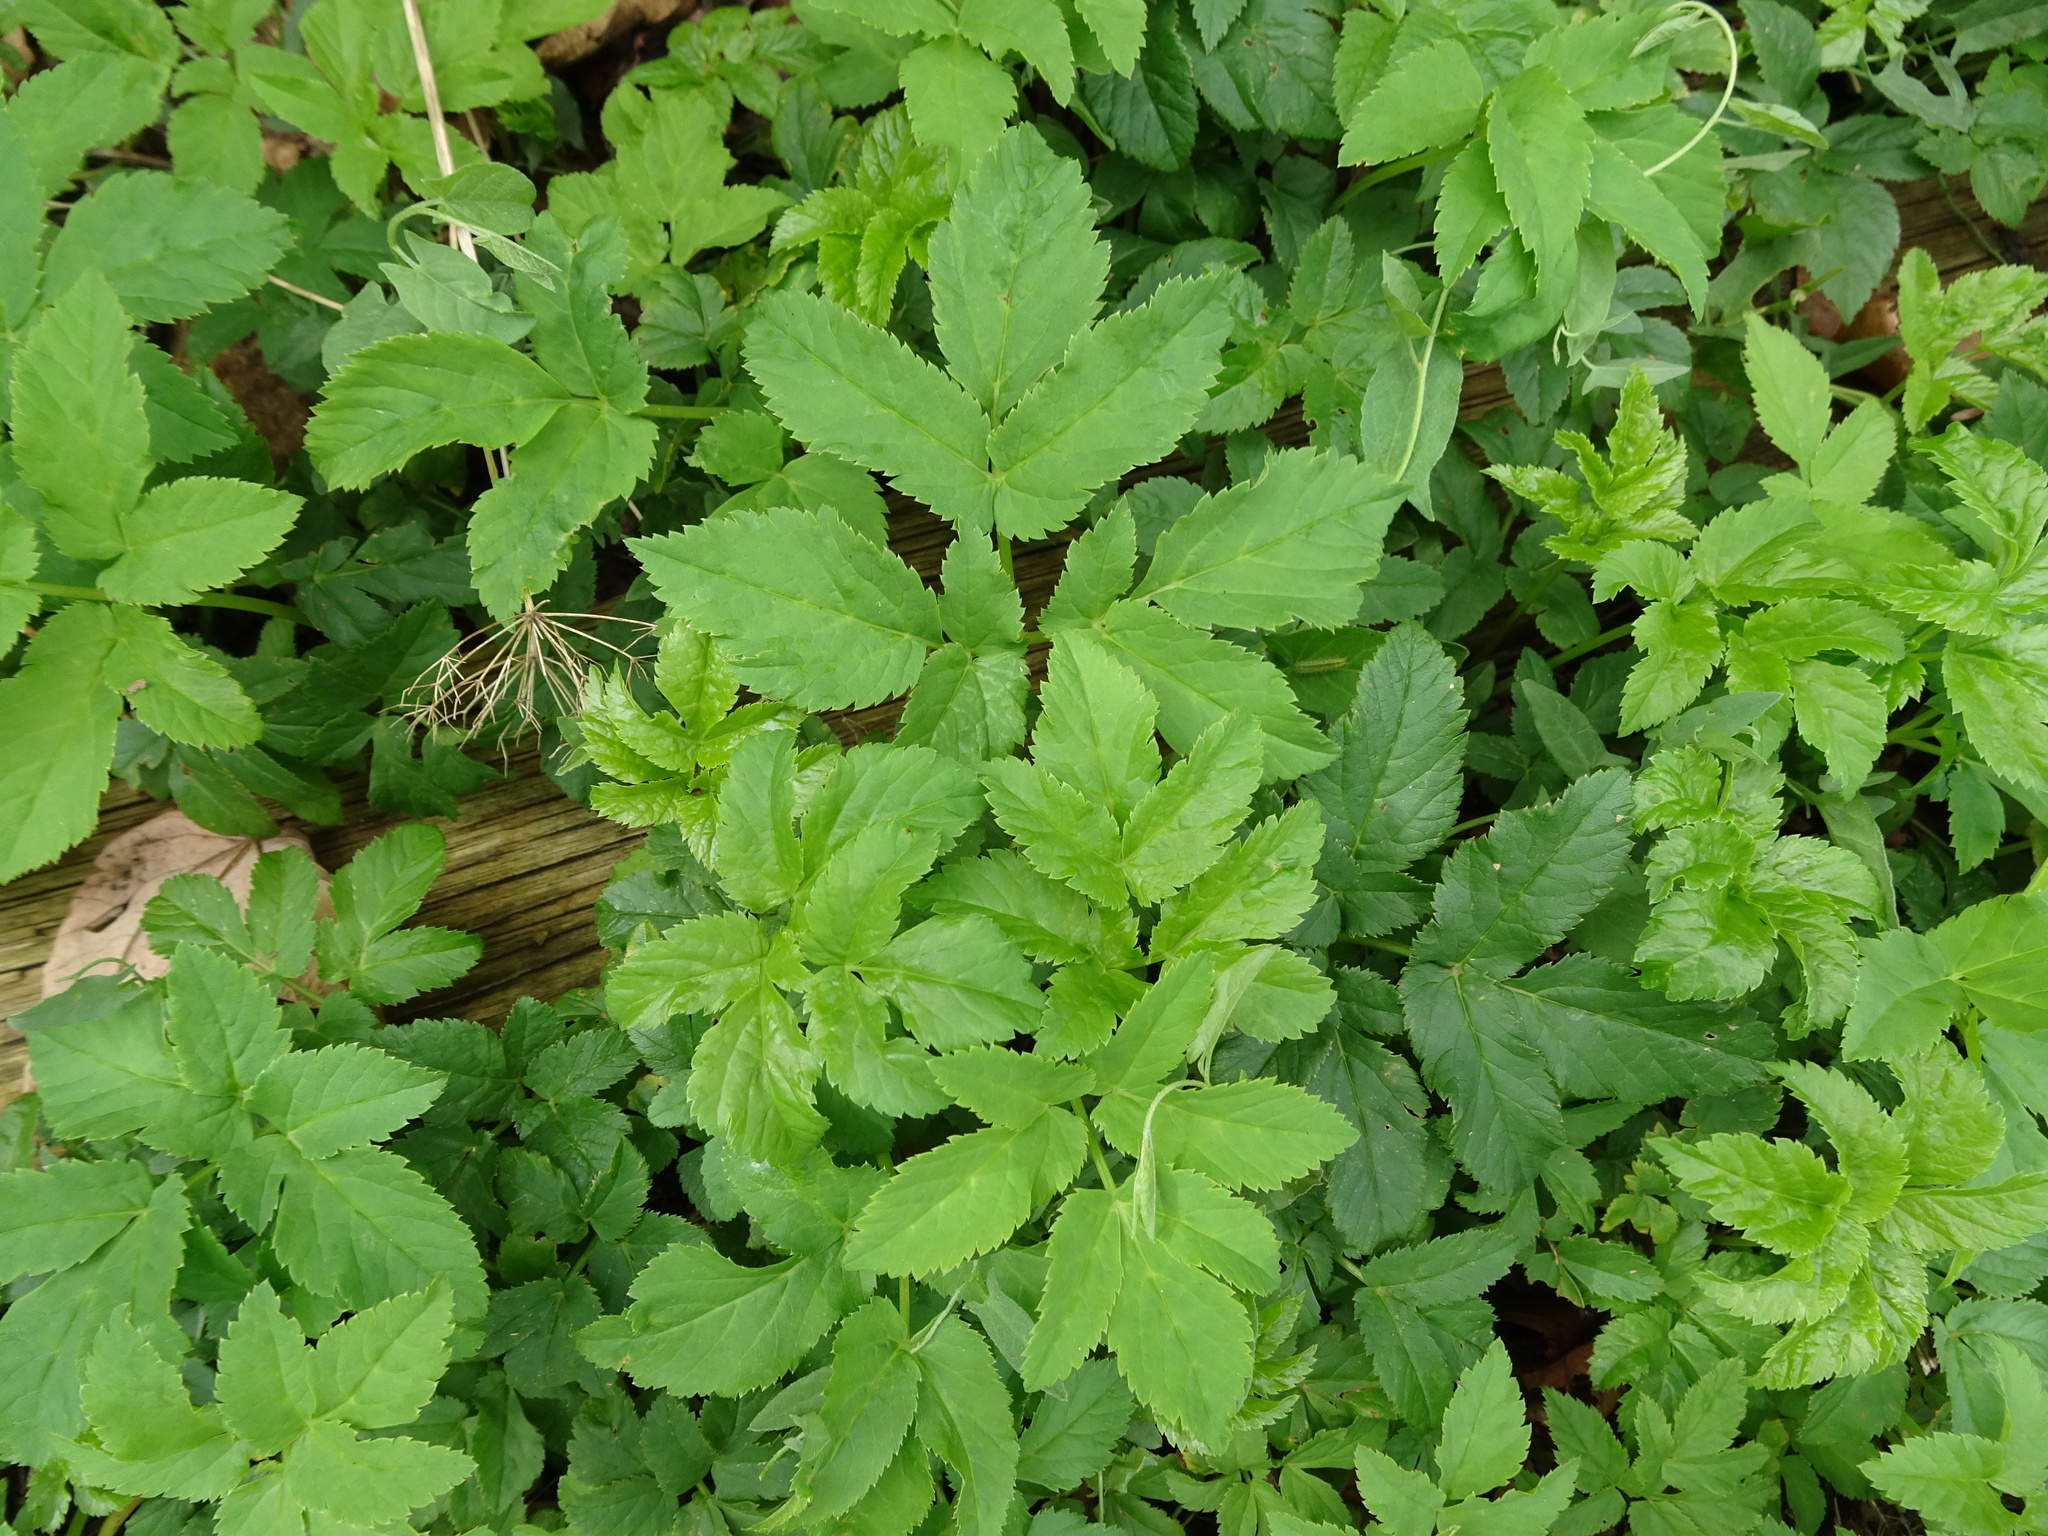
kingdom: Plantae
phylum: Tracheophyta
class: Magnoliopsida
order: Apiales
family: Apiaceae
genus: Aegopodium
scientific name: Aegopodium podagraria
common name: Ground-elder
